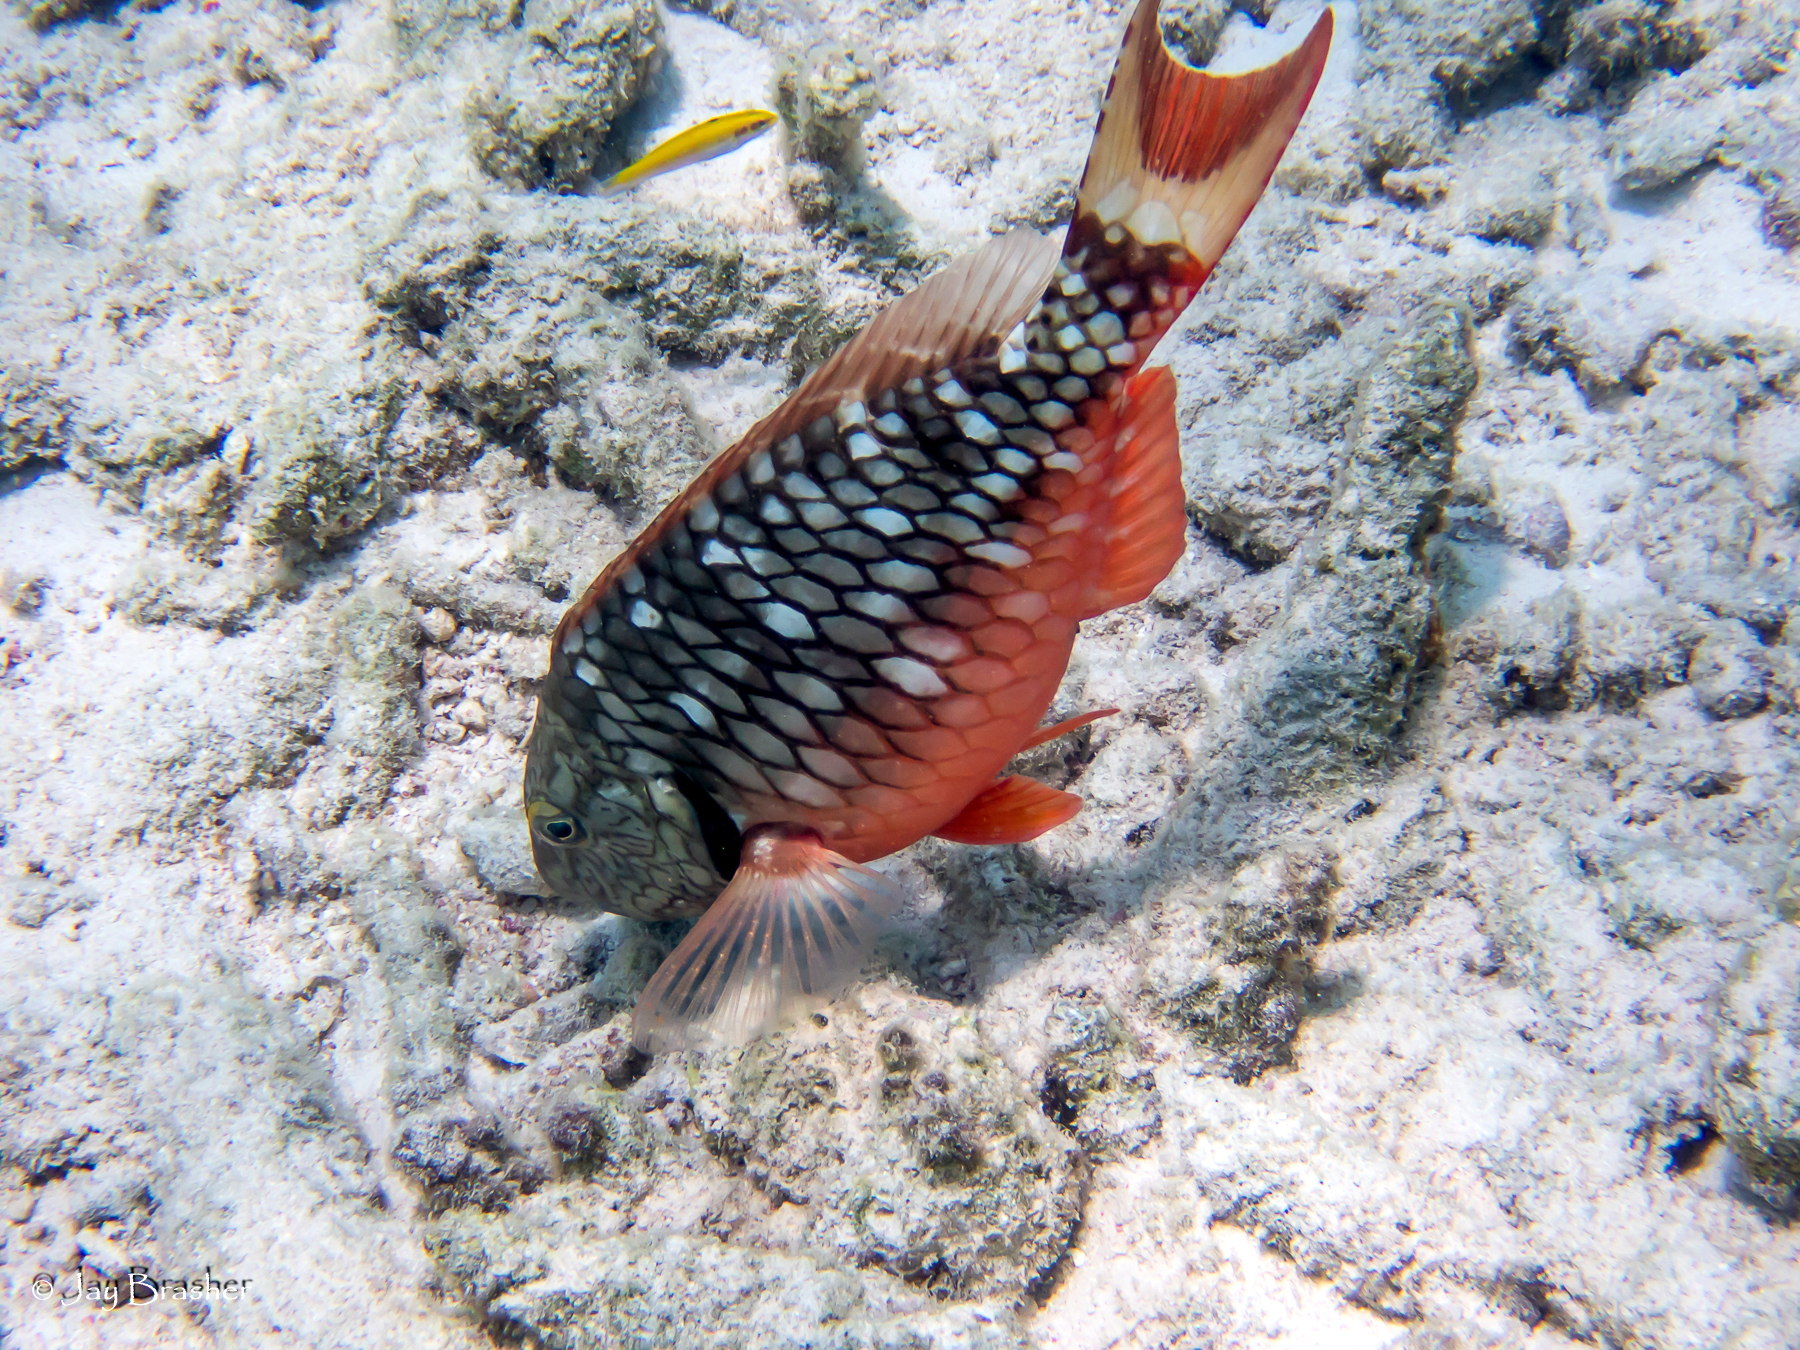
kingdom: Animalia
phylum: Chordata
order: Perciformes
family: Scaridae
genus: Sparisoma
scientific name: Sparisoma viride
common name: Stoplight parrotfish
